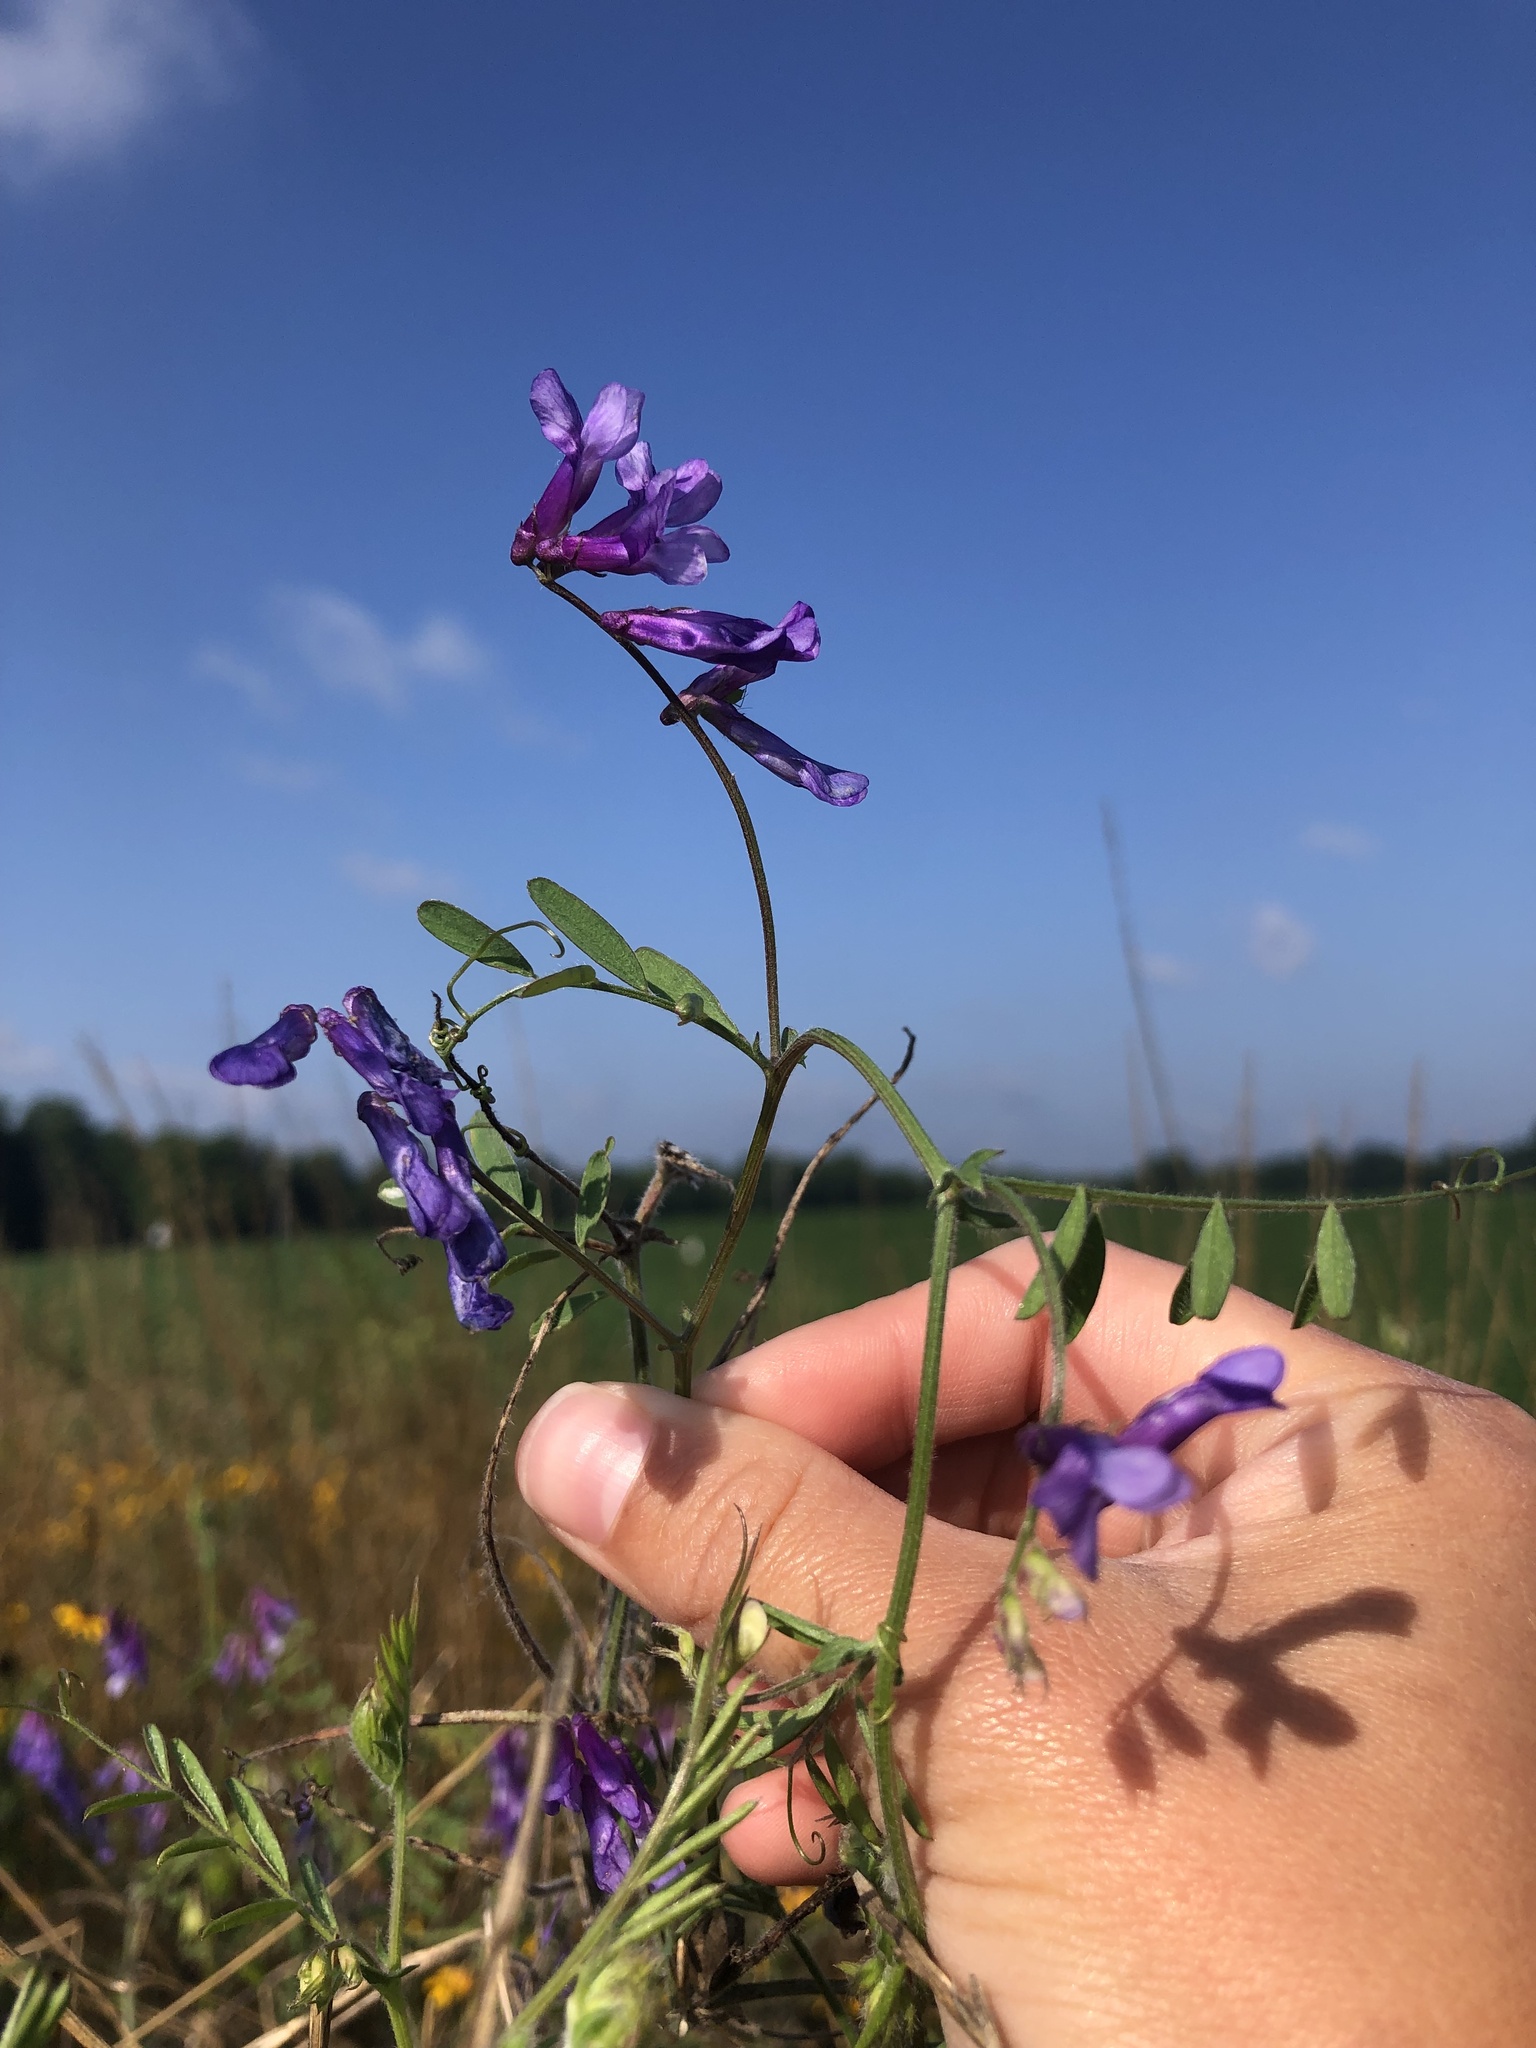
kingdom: Plantae
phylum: Tracheophyta
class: Magnoliopsida
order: Fabales
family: Fabaceae
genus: Vicia
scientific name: Vicia villosa
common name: Fodder vetch
